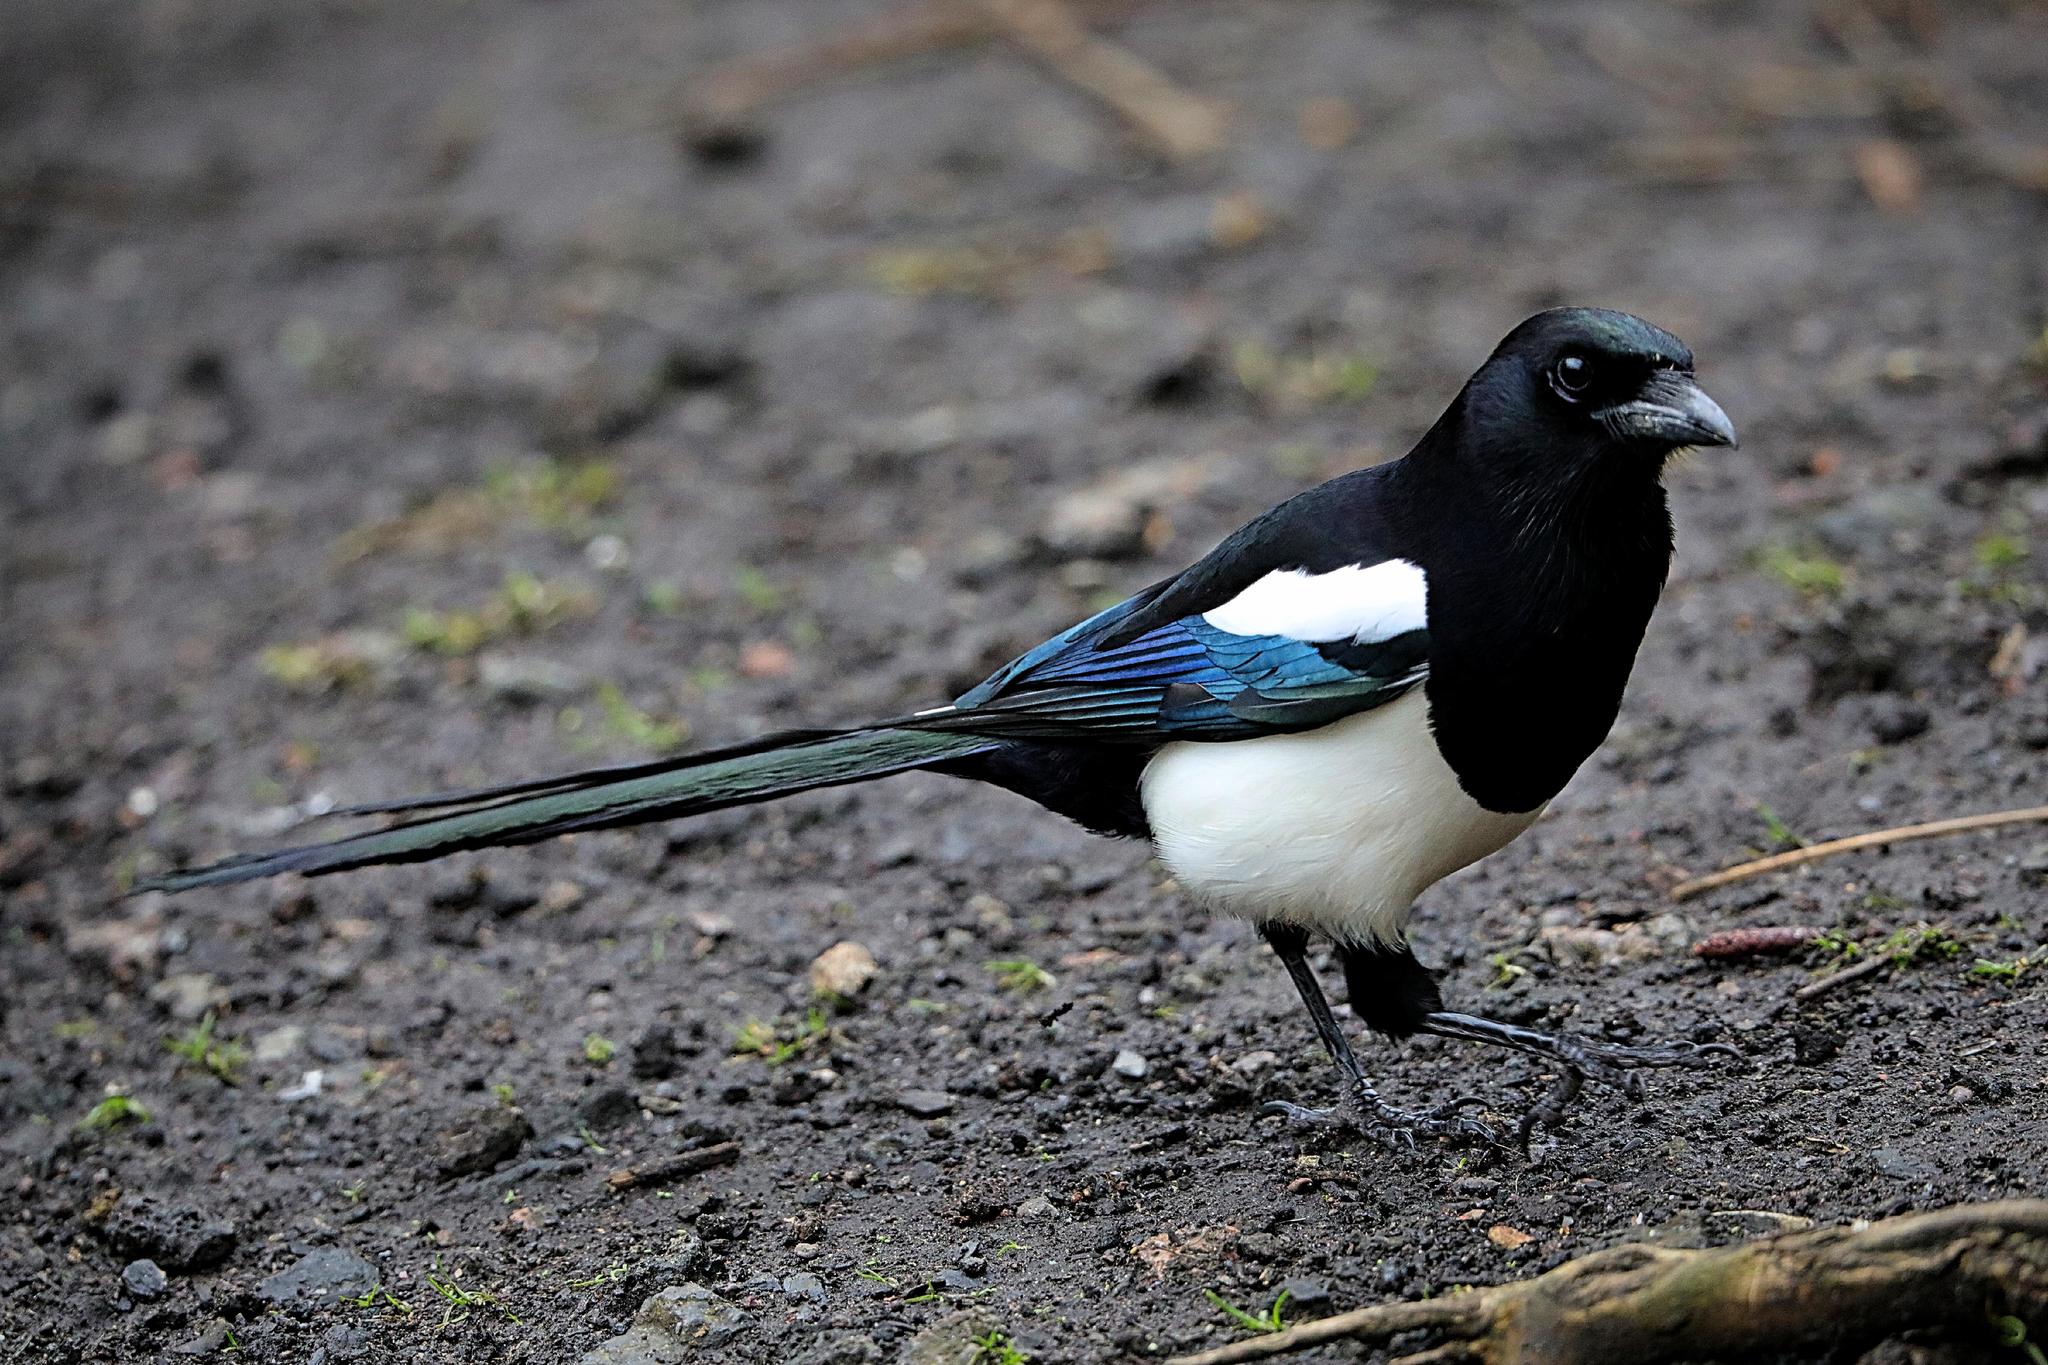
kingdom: Animalia
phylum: Chordata
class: Aves
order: Passeriformes
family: Corvidae
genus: Pica
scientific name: Pica pica
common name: Eurasian magpie
